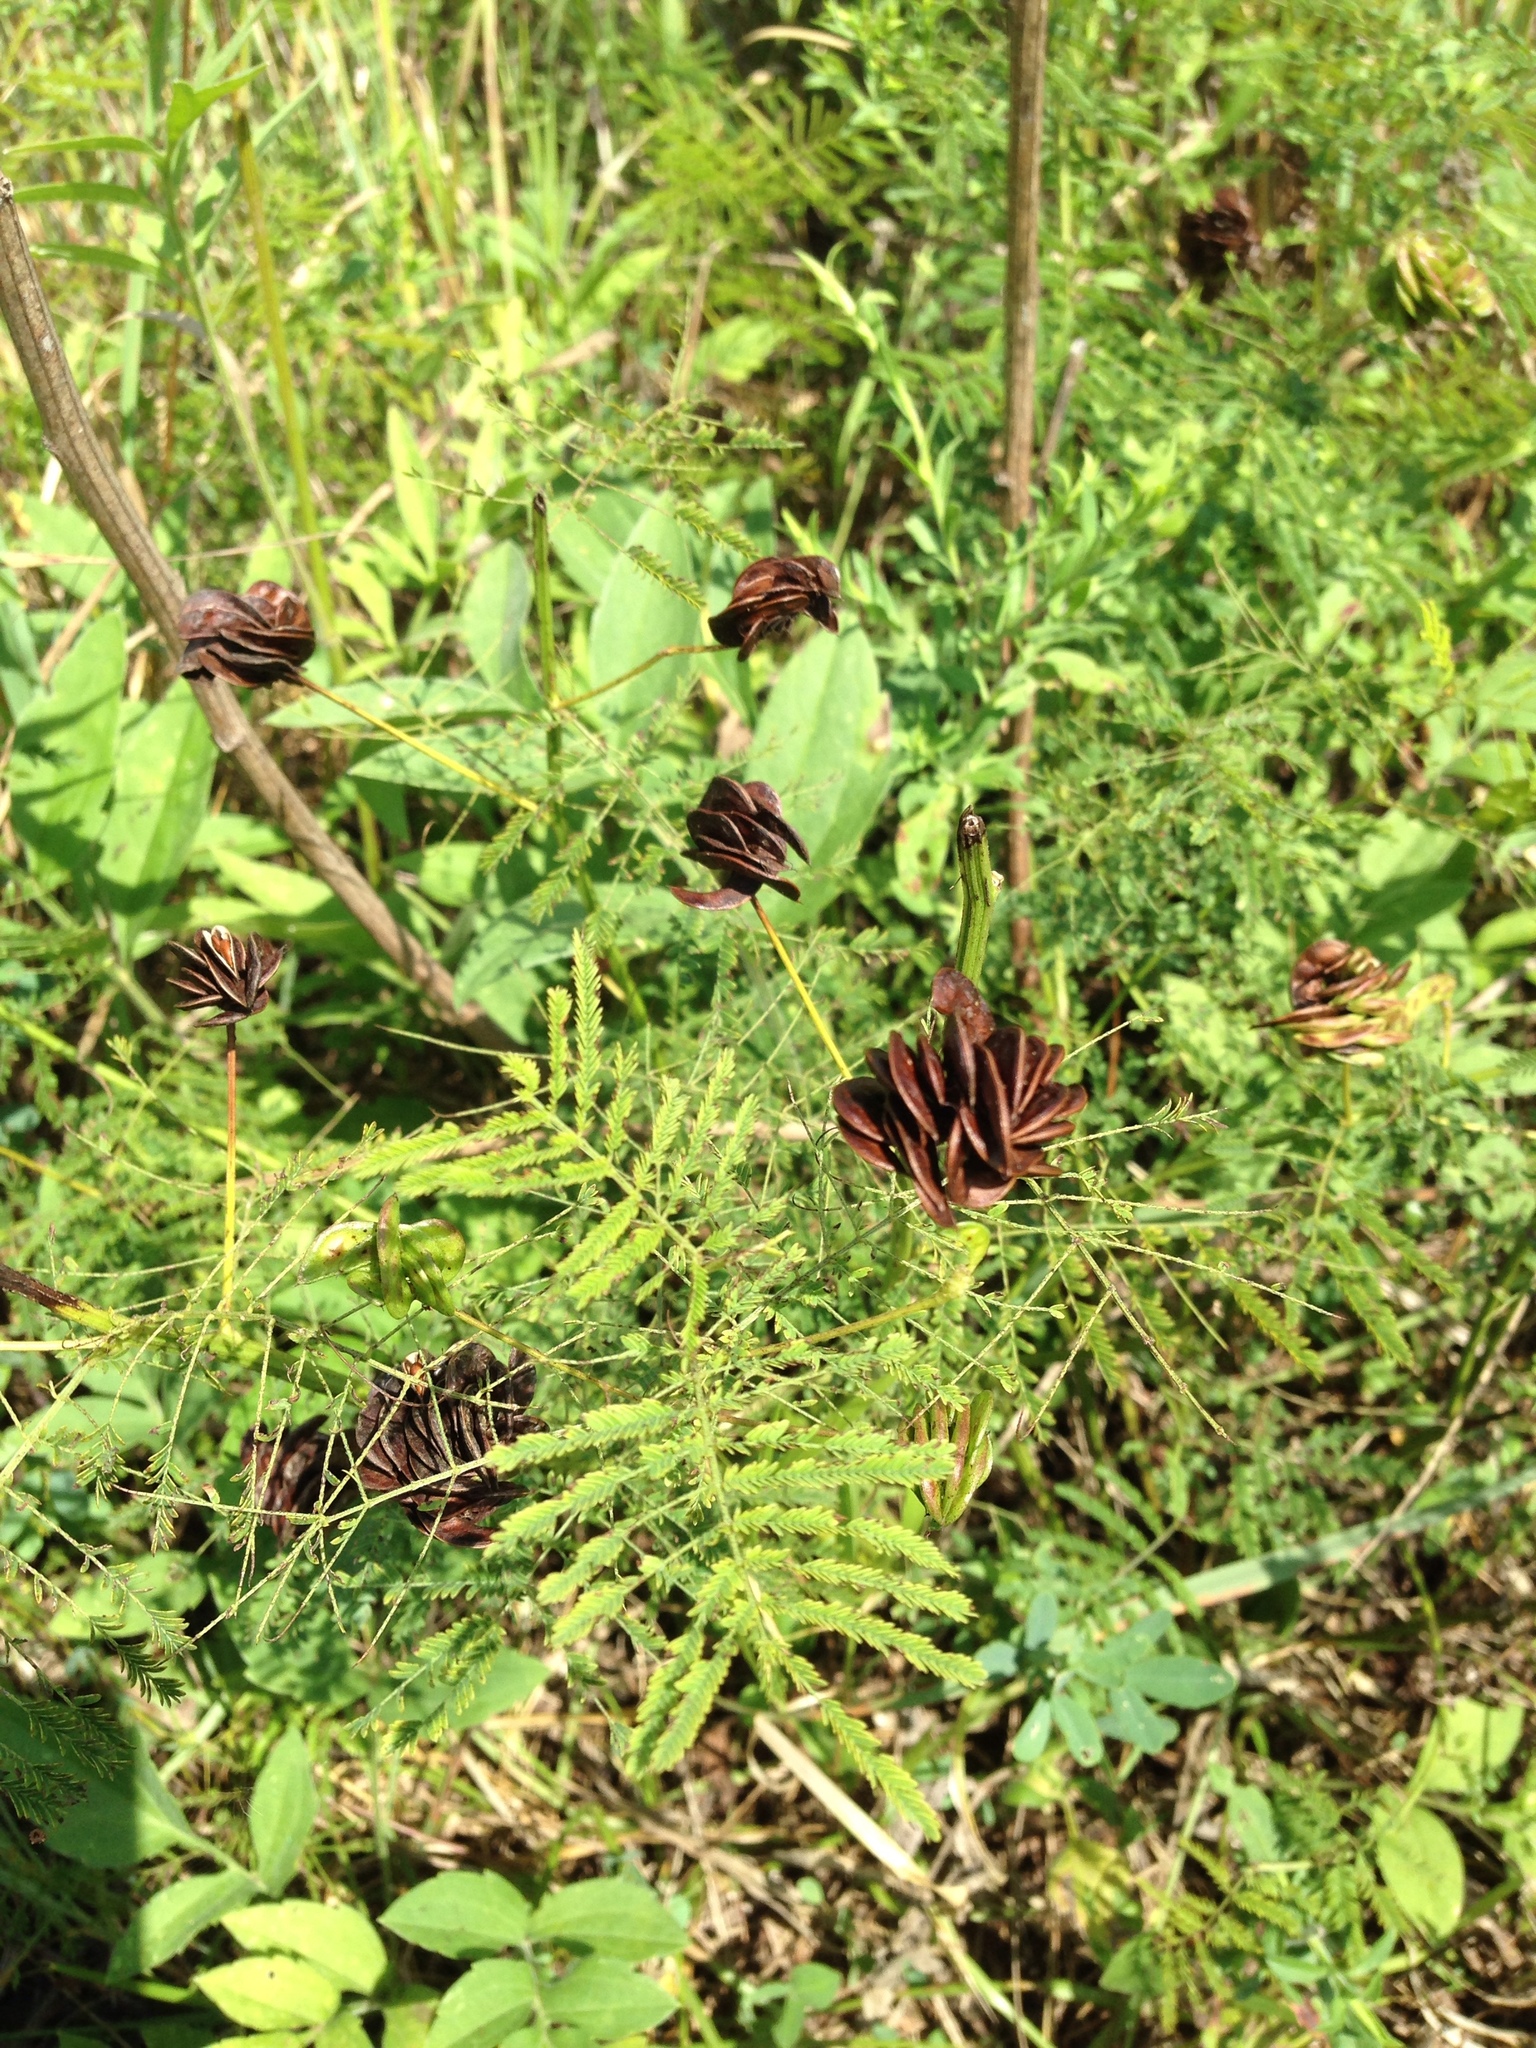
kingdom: Plantae
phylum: Tracheophyta
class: Magnoliopsida
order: Fabales
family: Fabaceae
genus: Desmanthus
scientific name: Desmanthus illinoensis
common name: Illinois bundle-flower
